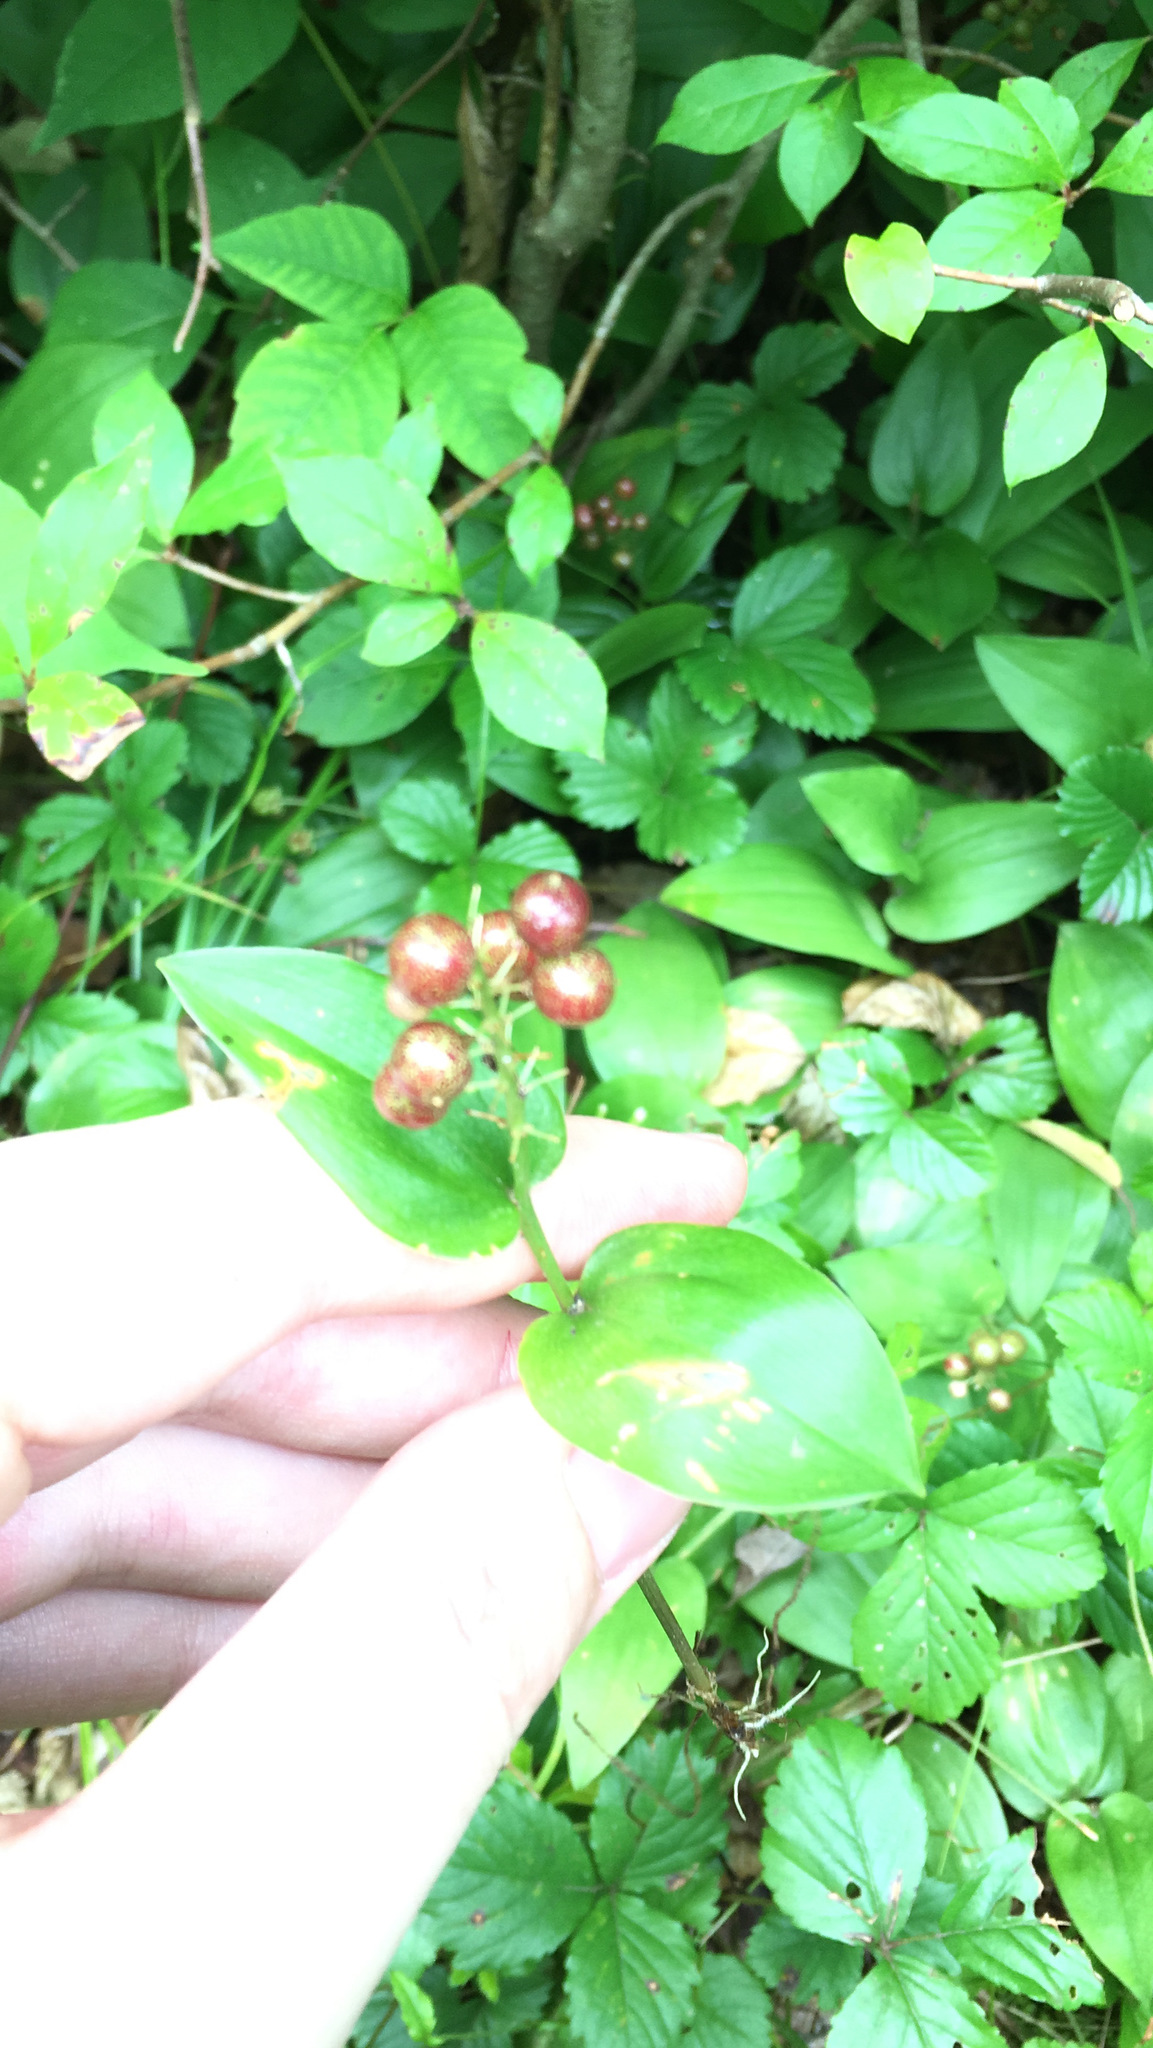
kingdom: Plantae
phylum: Tracheophyta
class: Liliopsida
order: Asparagales
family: Asparagaceae
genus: Maianthemum
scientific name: Maianthemum canadense
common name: False lily-of-the-valley
